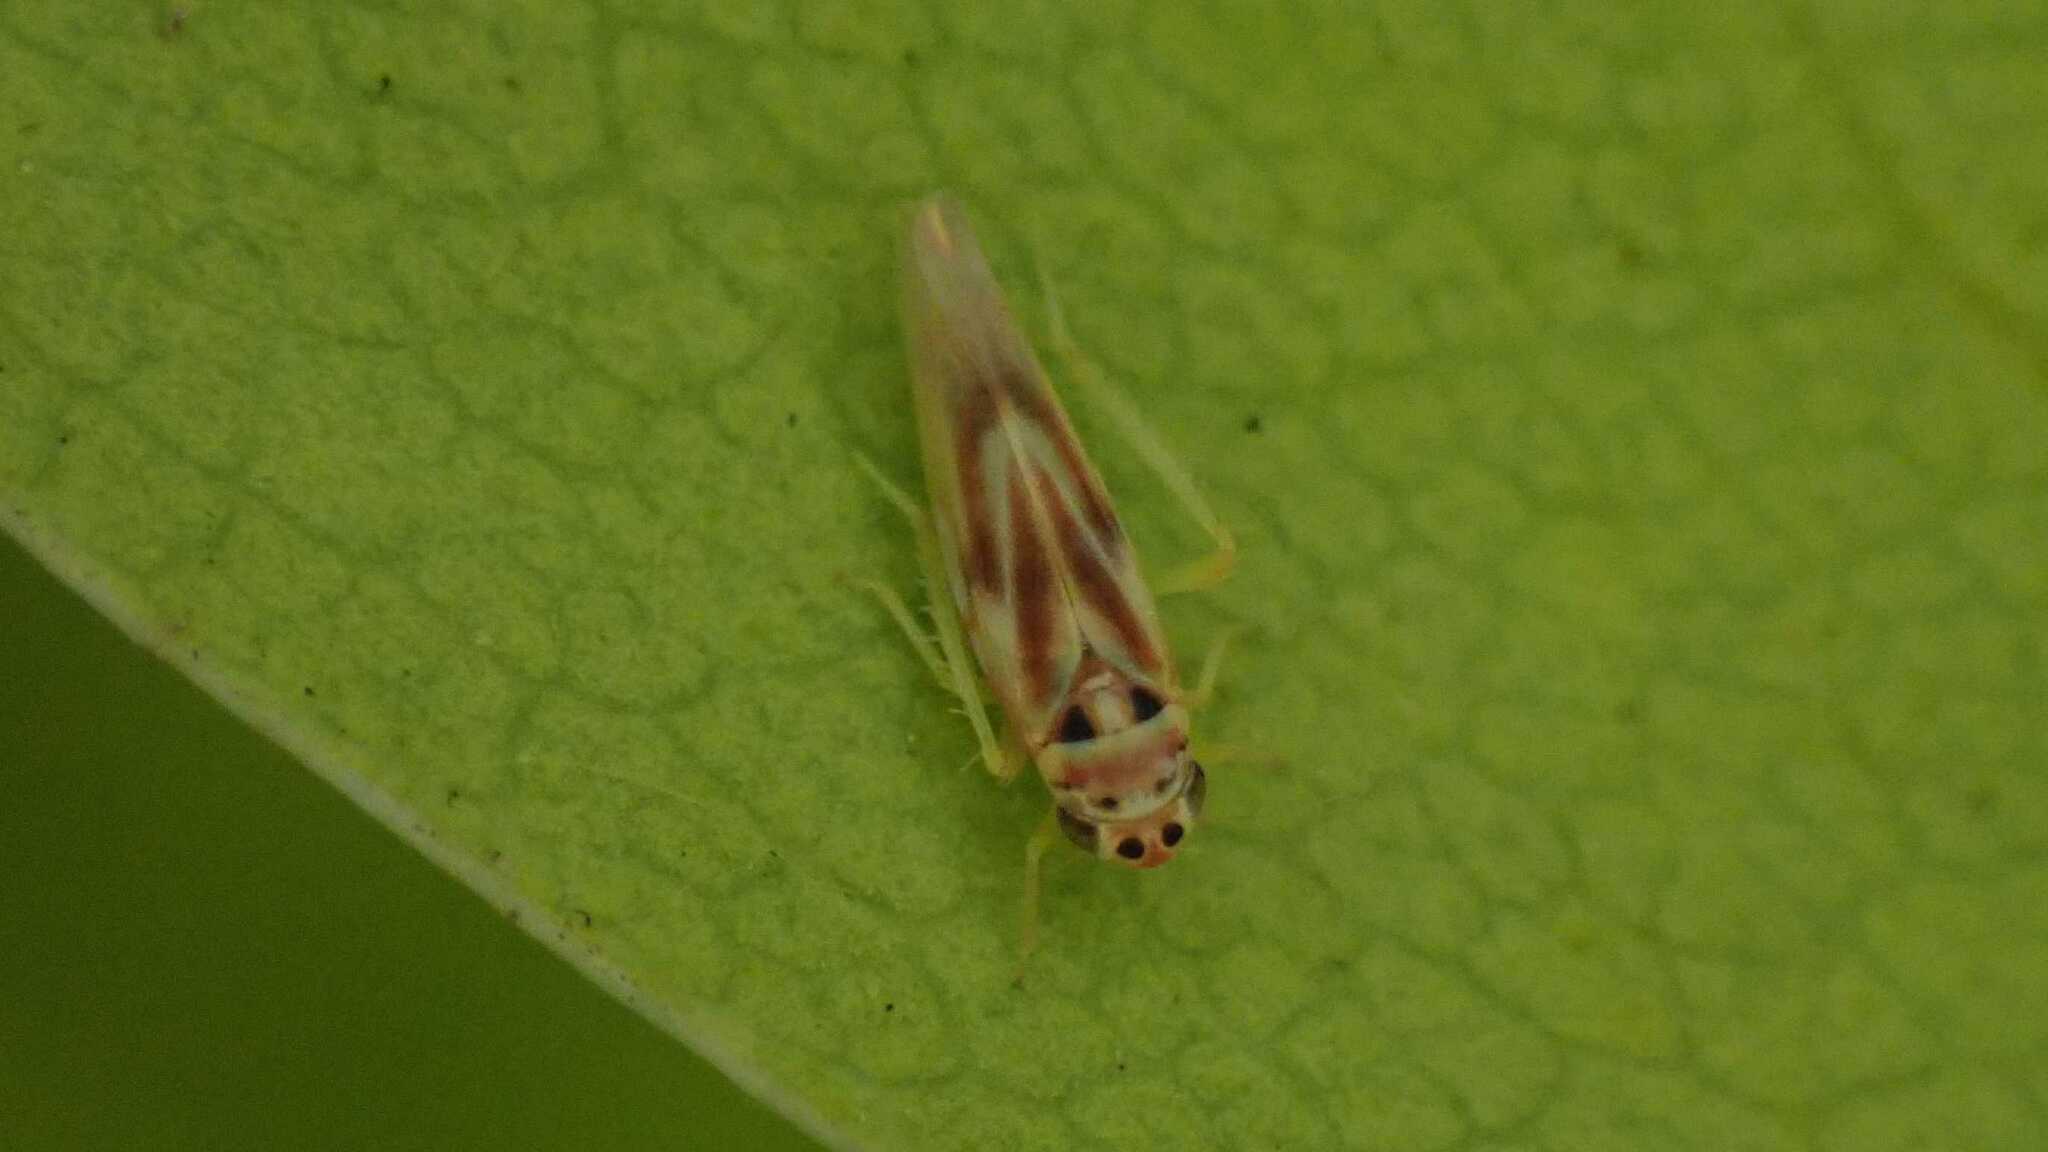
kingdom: Animalia
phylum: Arthropoda
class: Insecta
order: Hemiptera
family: Cicadellidae
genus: Arboridia
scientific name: Arboridia
